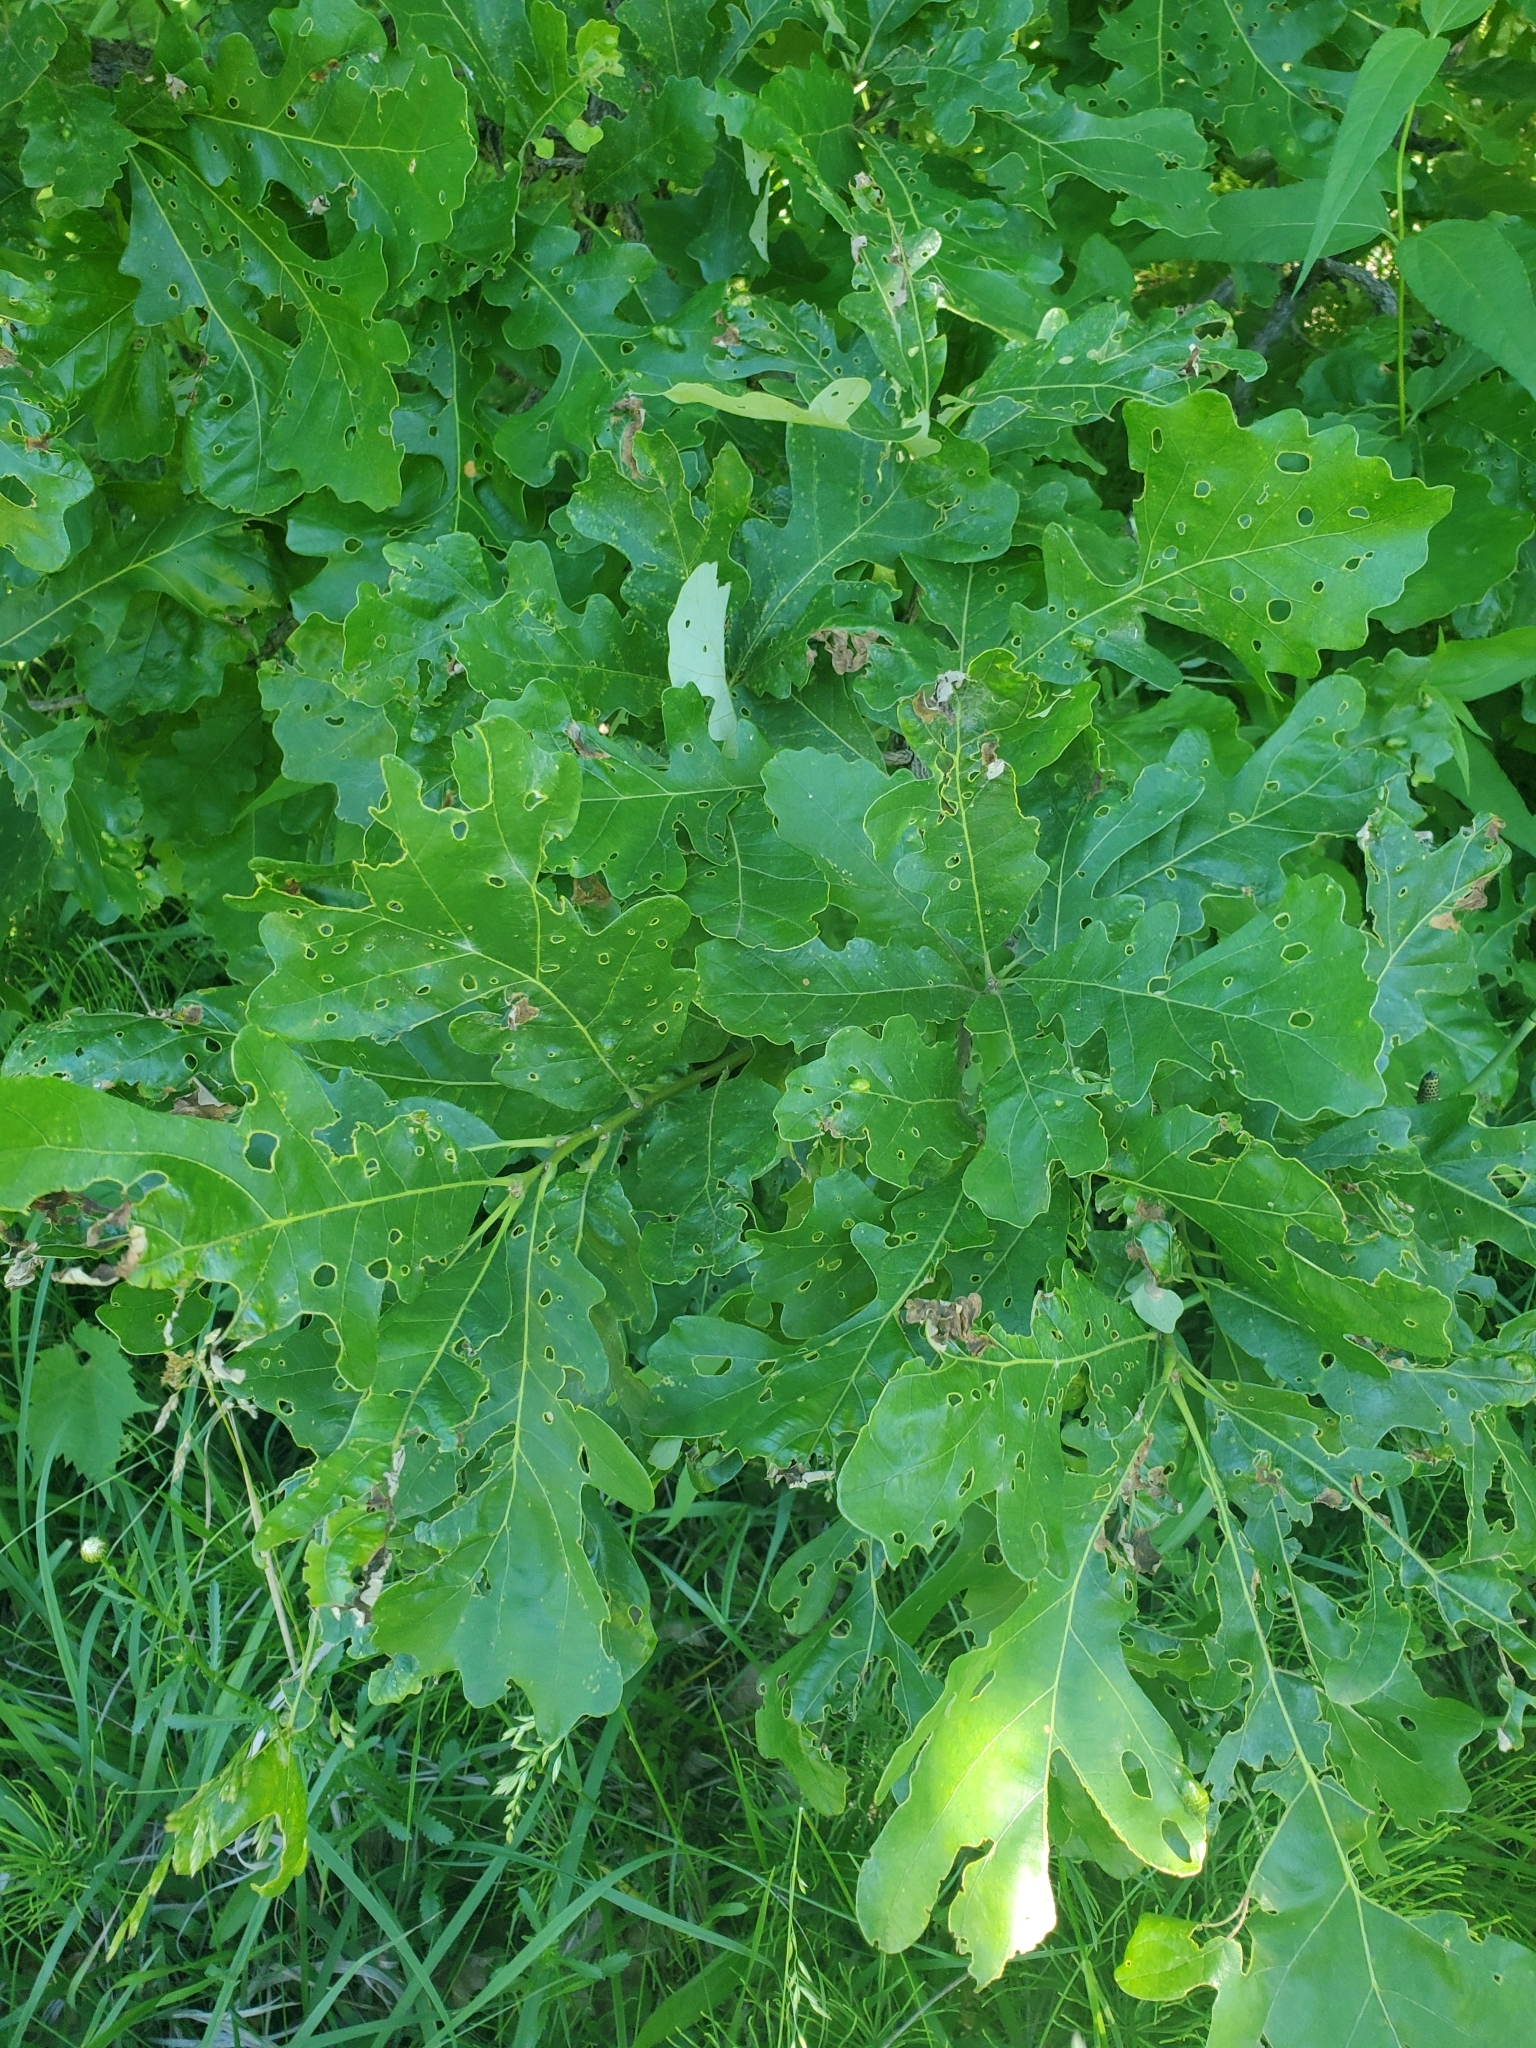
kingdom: Plantae
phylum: Tracheophyta
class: Magnoliopsida
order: Fagales
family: Fagaceae
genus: Quercus
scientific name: Quercus macrocarpa
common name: Bur oak
